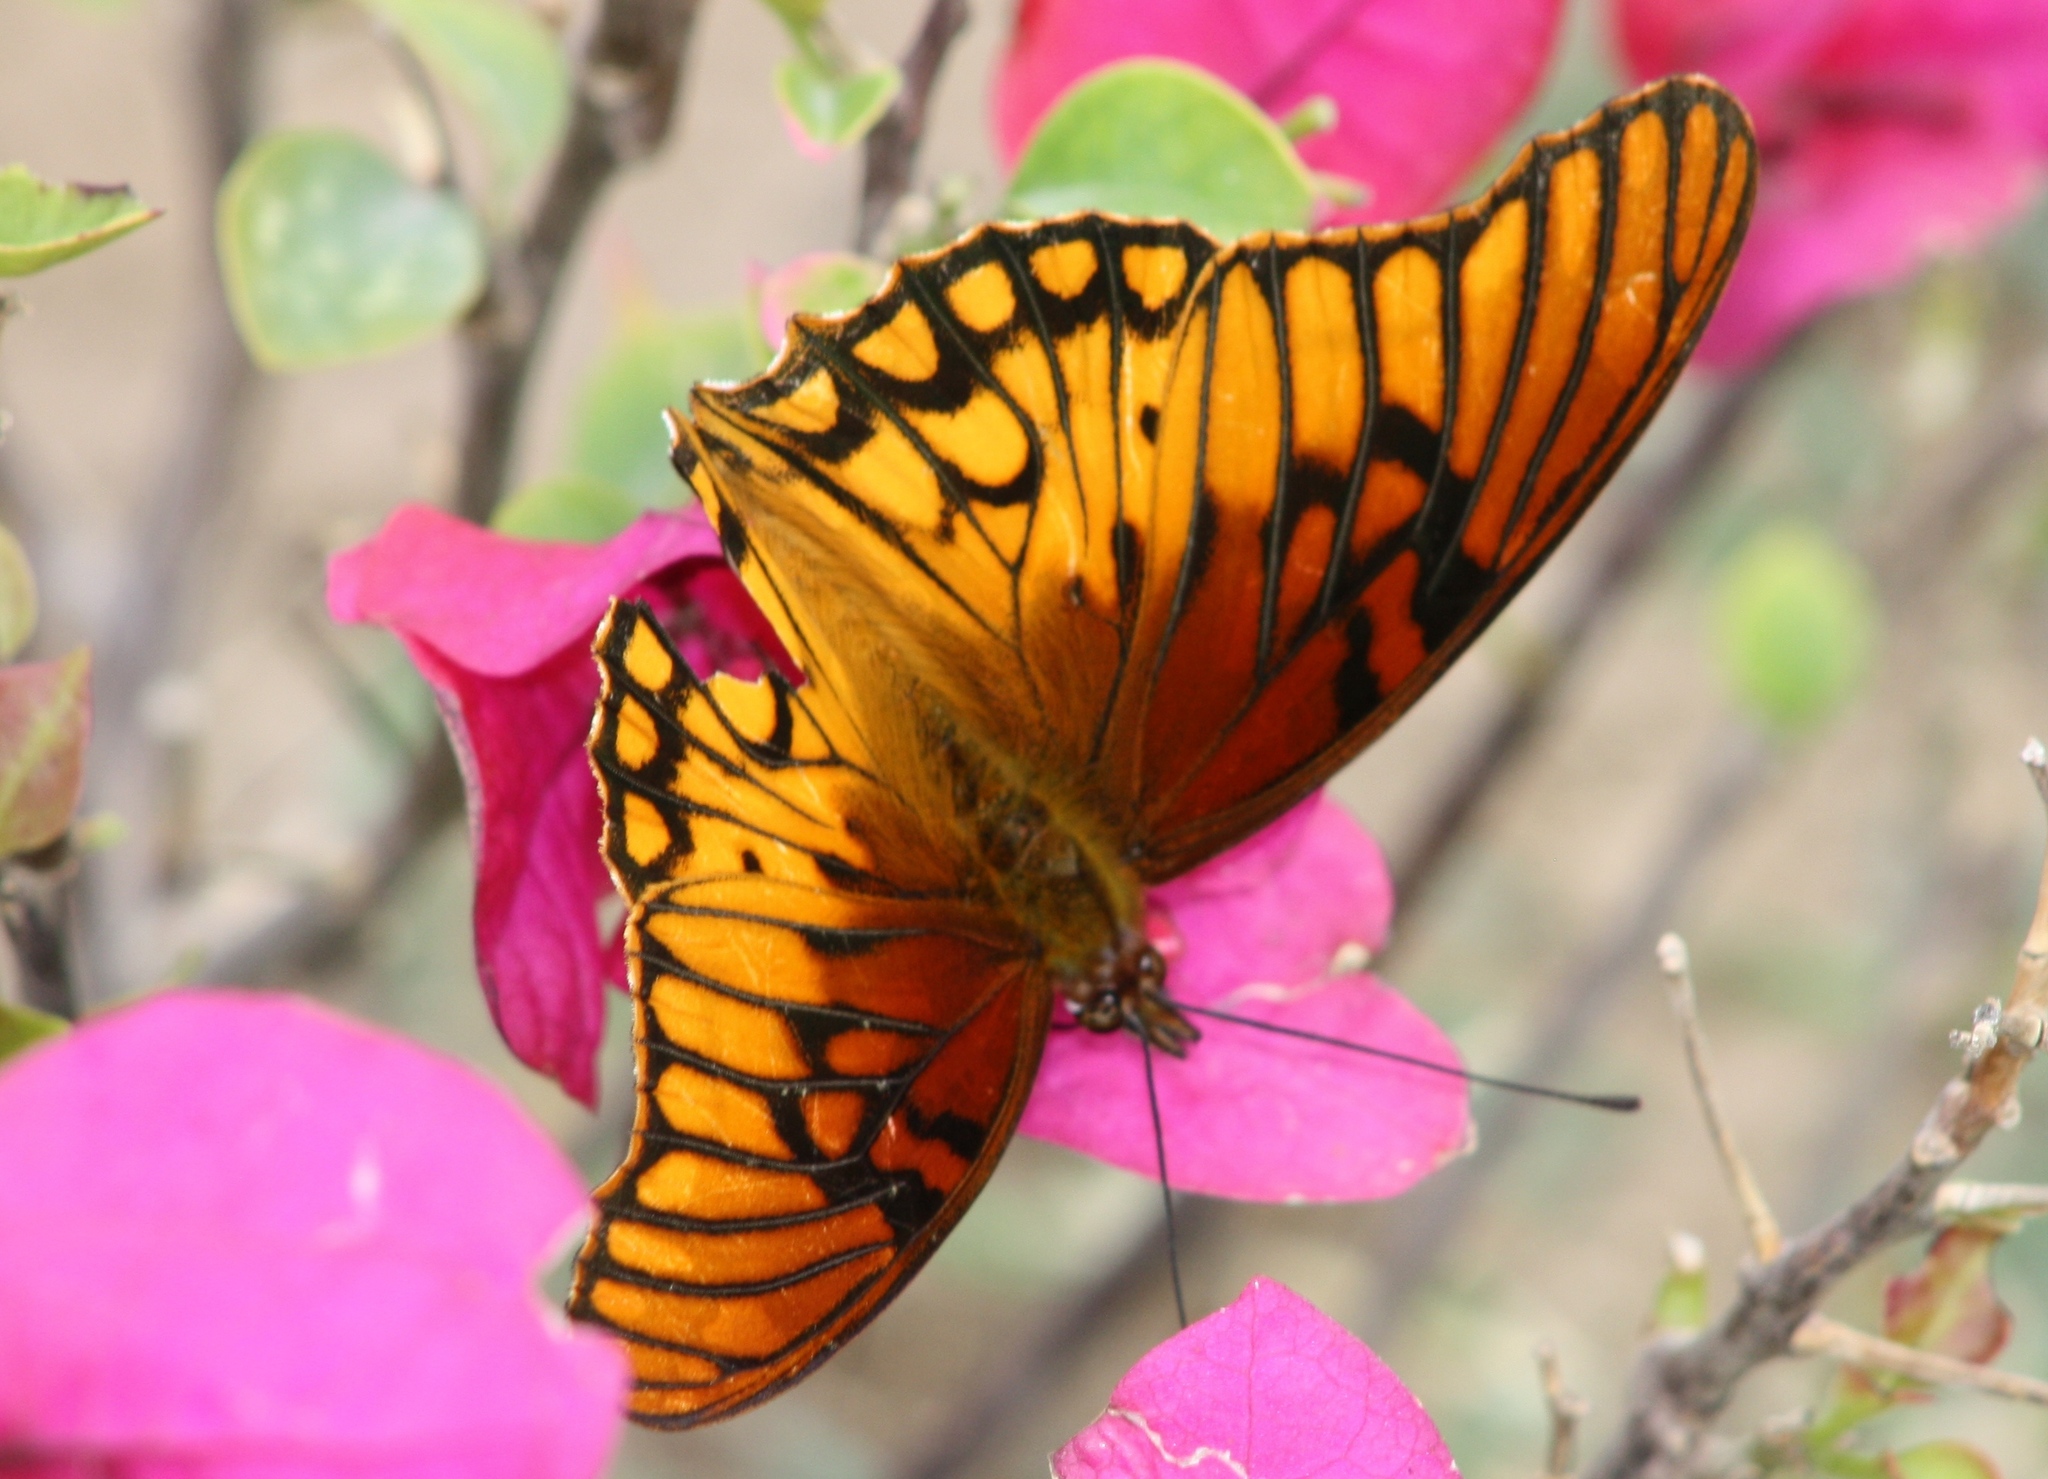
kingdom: Animalia
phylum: Arthropoda
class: Insecta
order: Lepidoptera
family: Nymphalidae
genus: Dione
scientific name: Dione moneta
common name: Mexican silverspot
